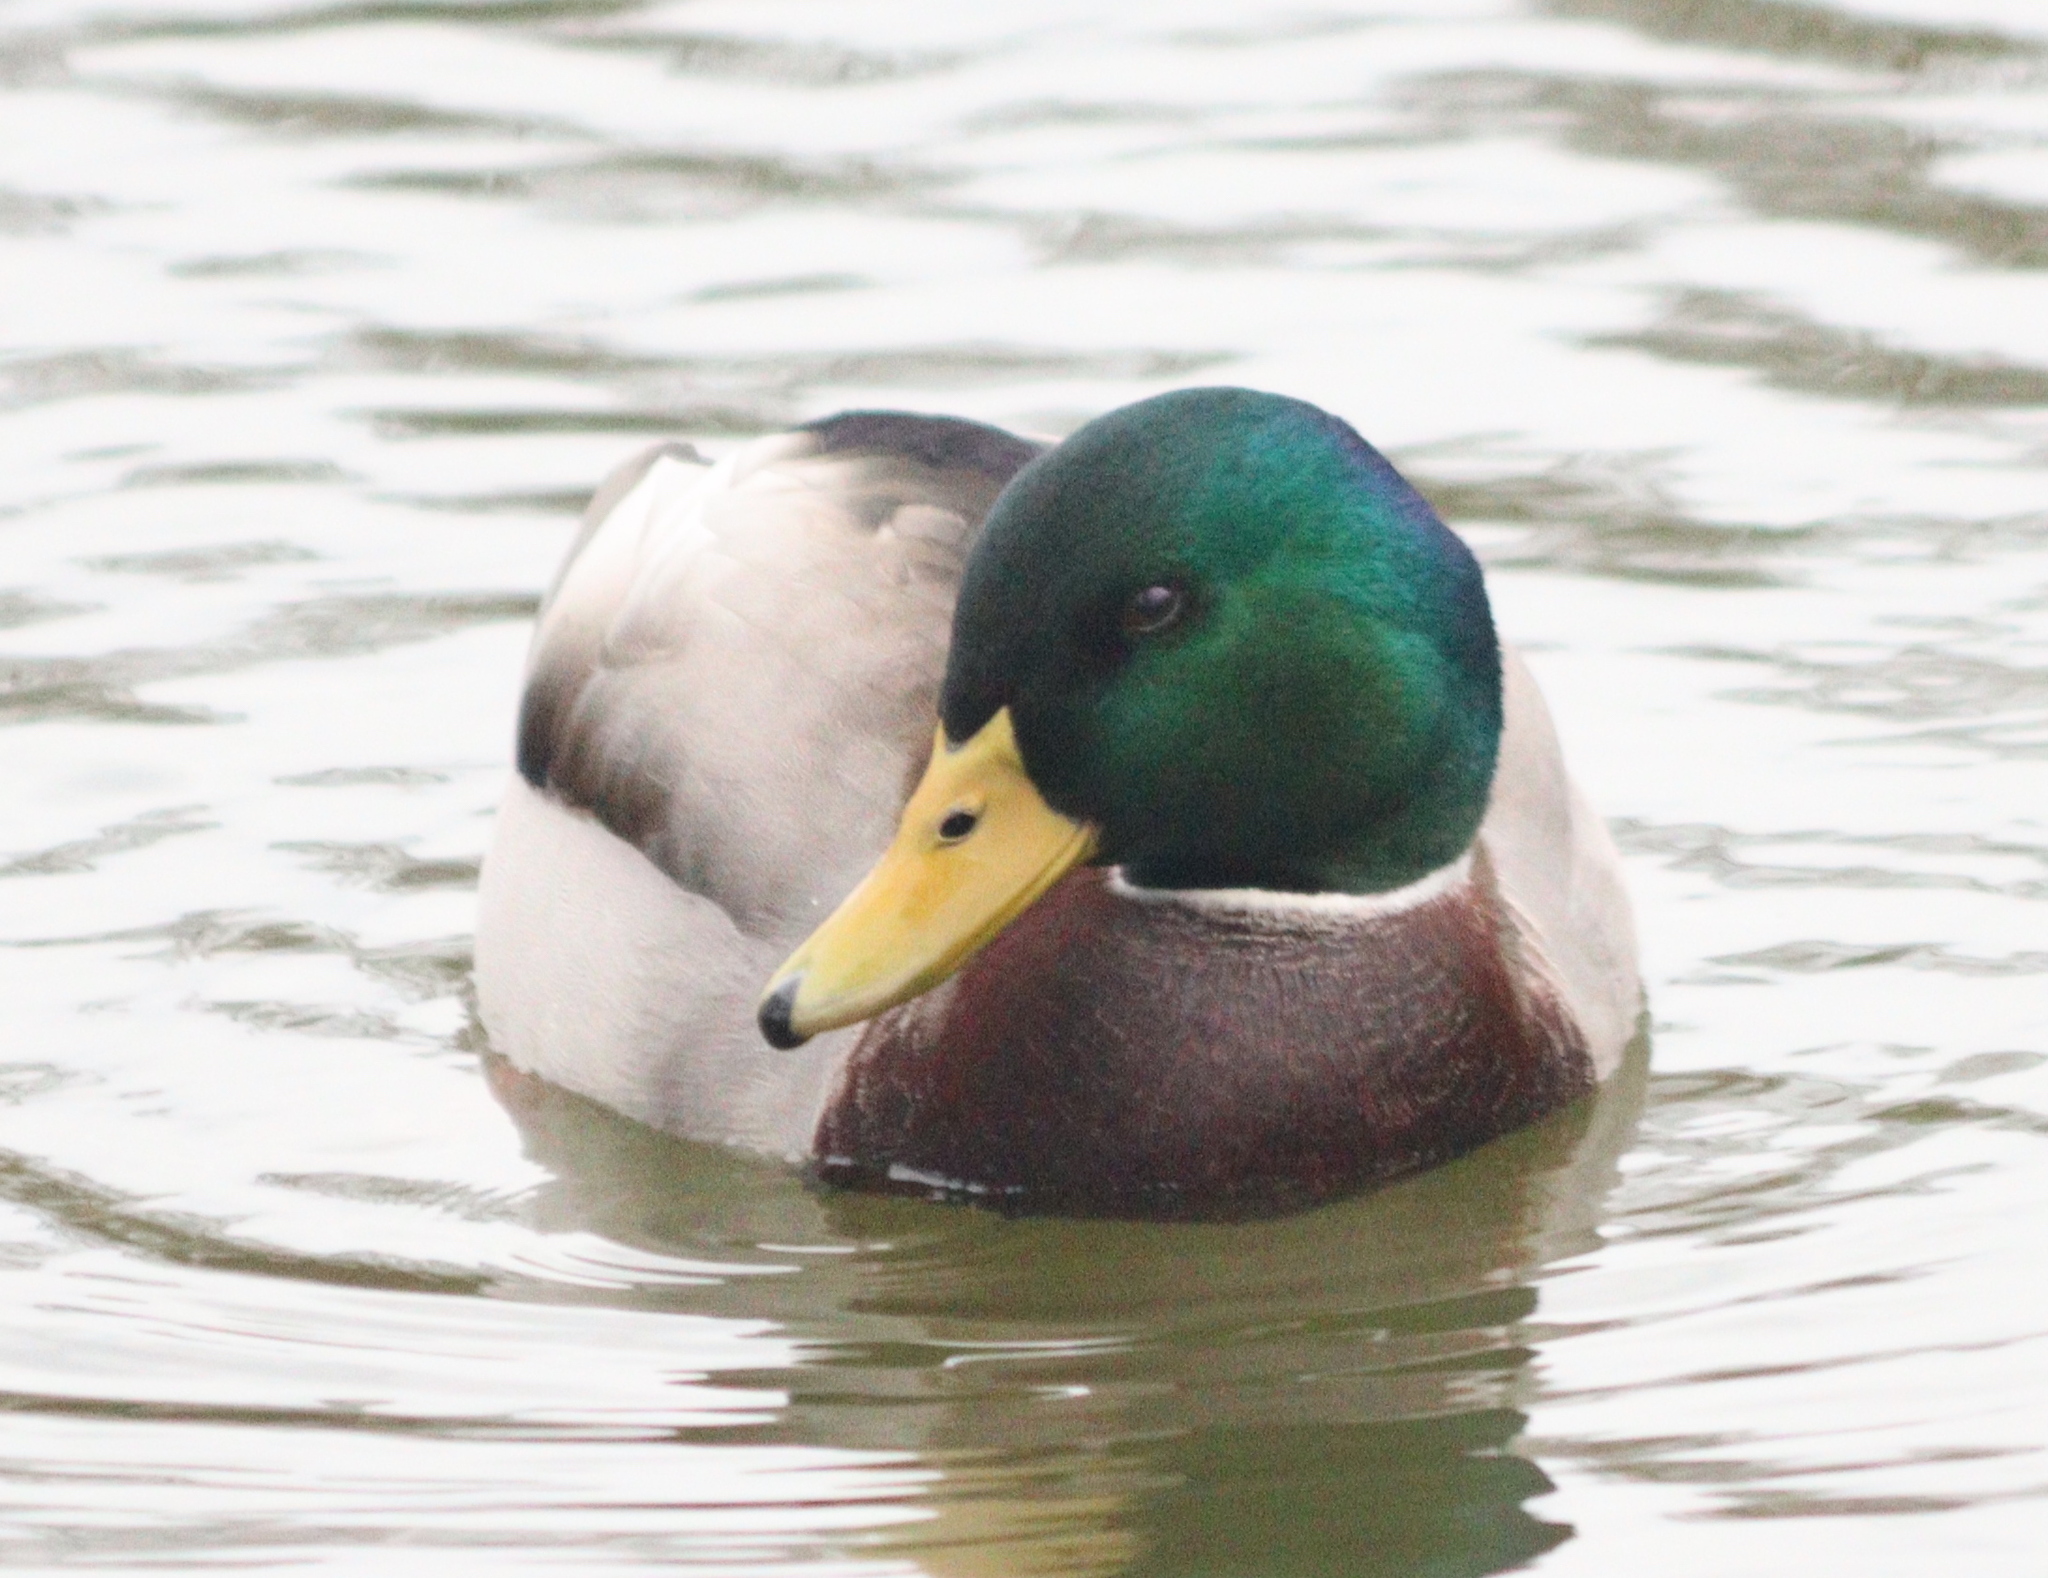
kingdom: Animalia
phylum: Chordata
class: Aves
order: Anseriformes
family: Anatidae
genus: Anas
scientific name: Anas platyrhynchos
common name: Mallard
